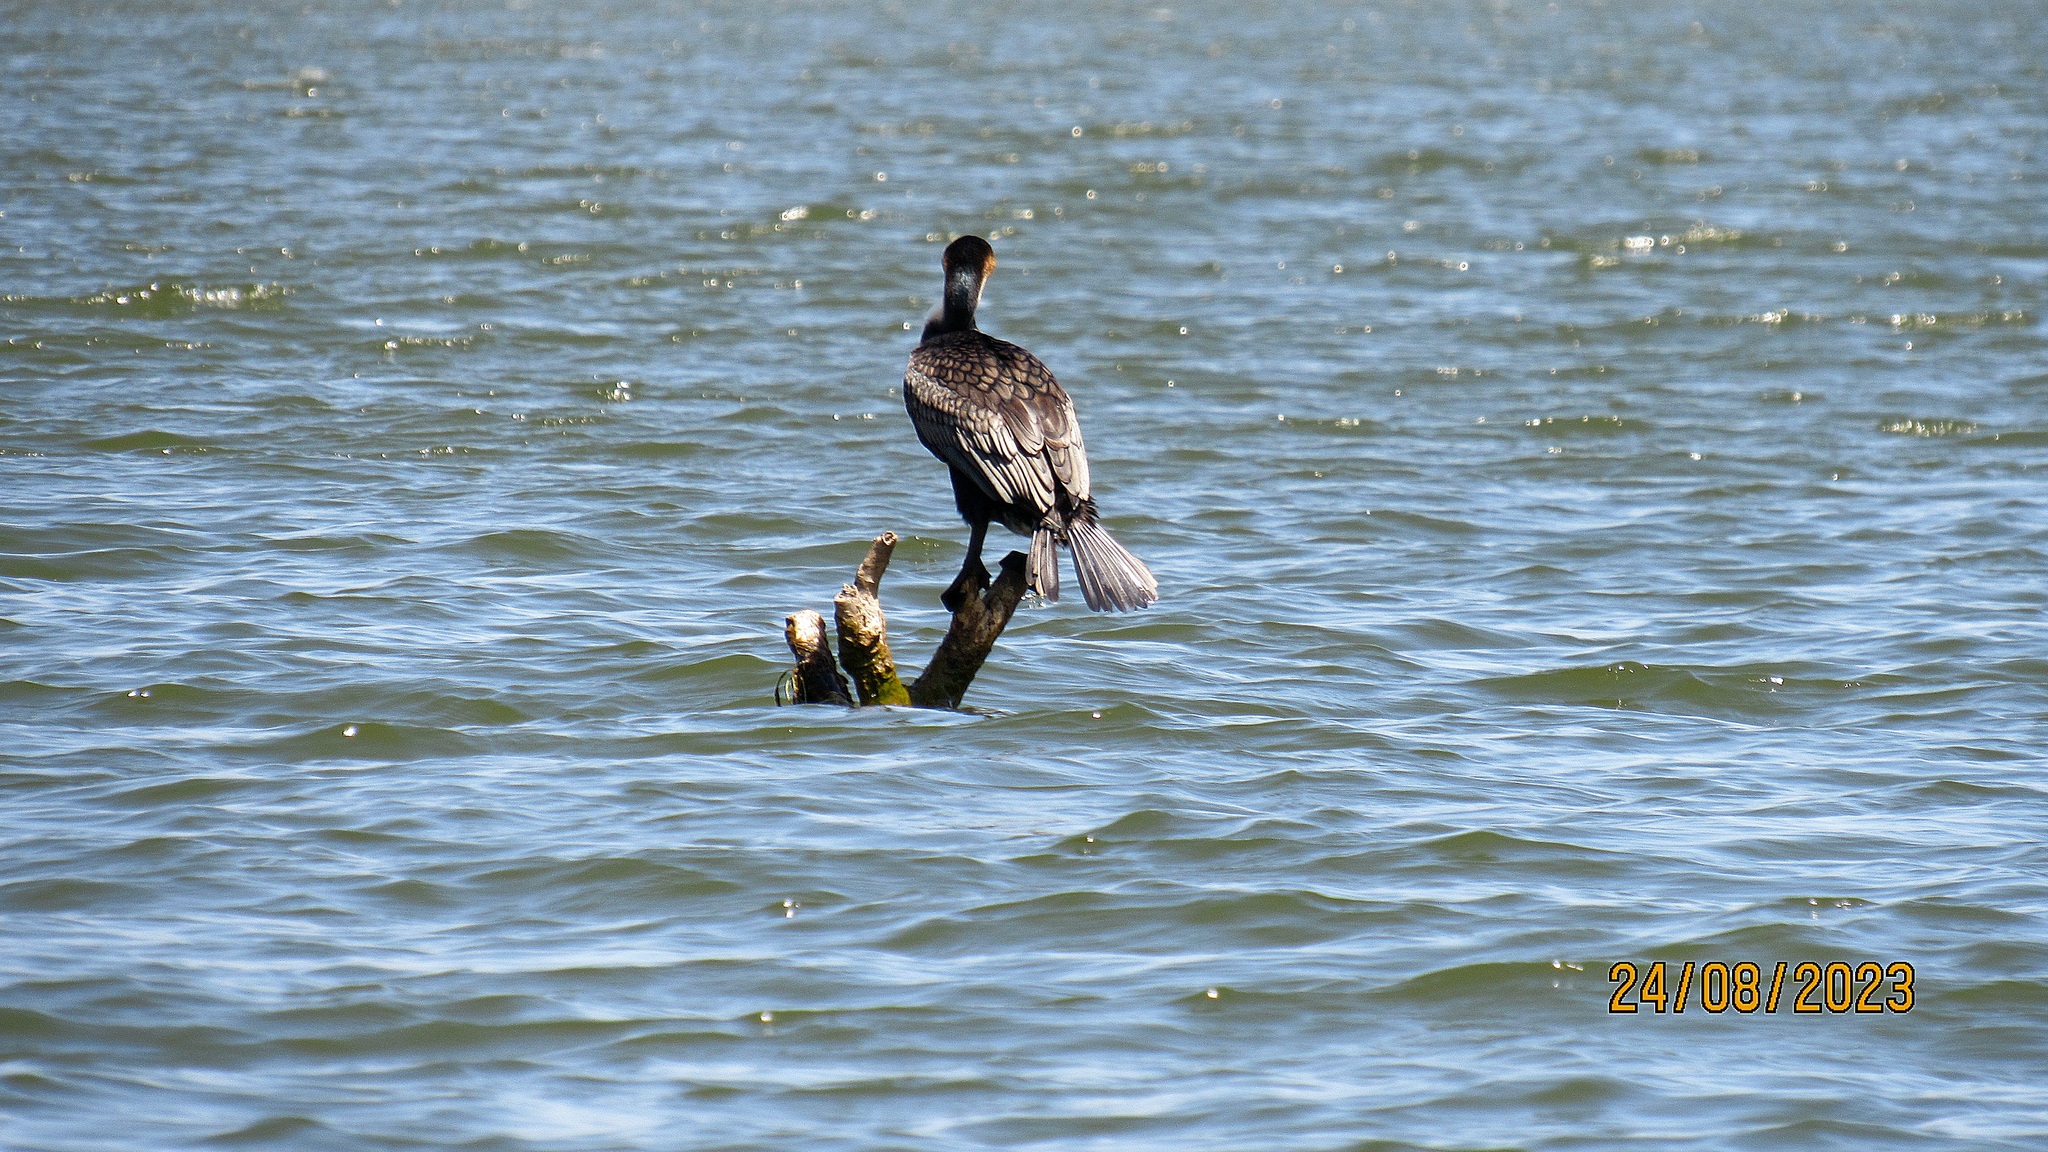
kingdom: Animalia
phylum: Chordata
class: Aves
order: Suliformes
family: Phalacrocoracidae
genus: Phalacrocorax
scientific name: Phalacrocorax carbo
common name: Great cormorant
